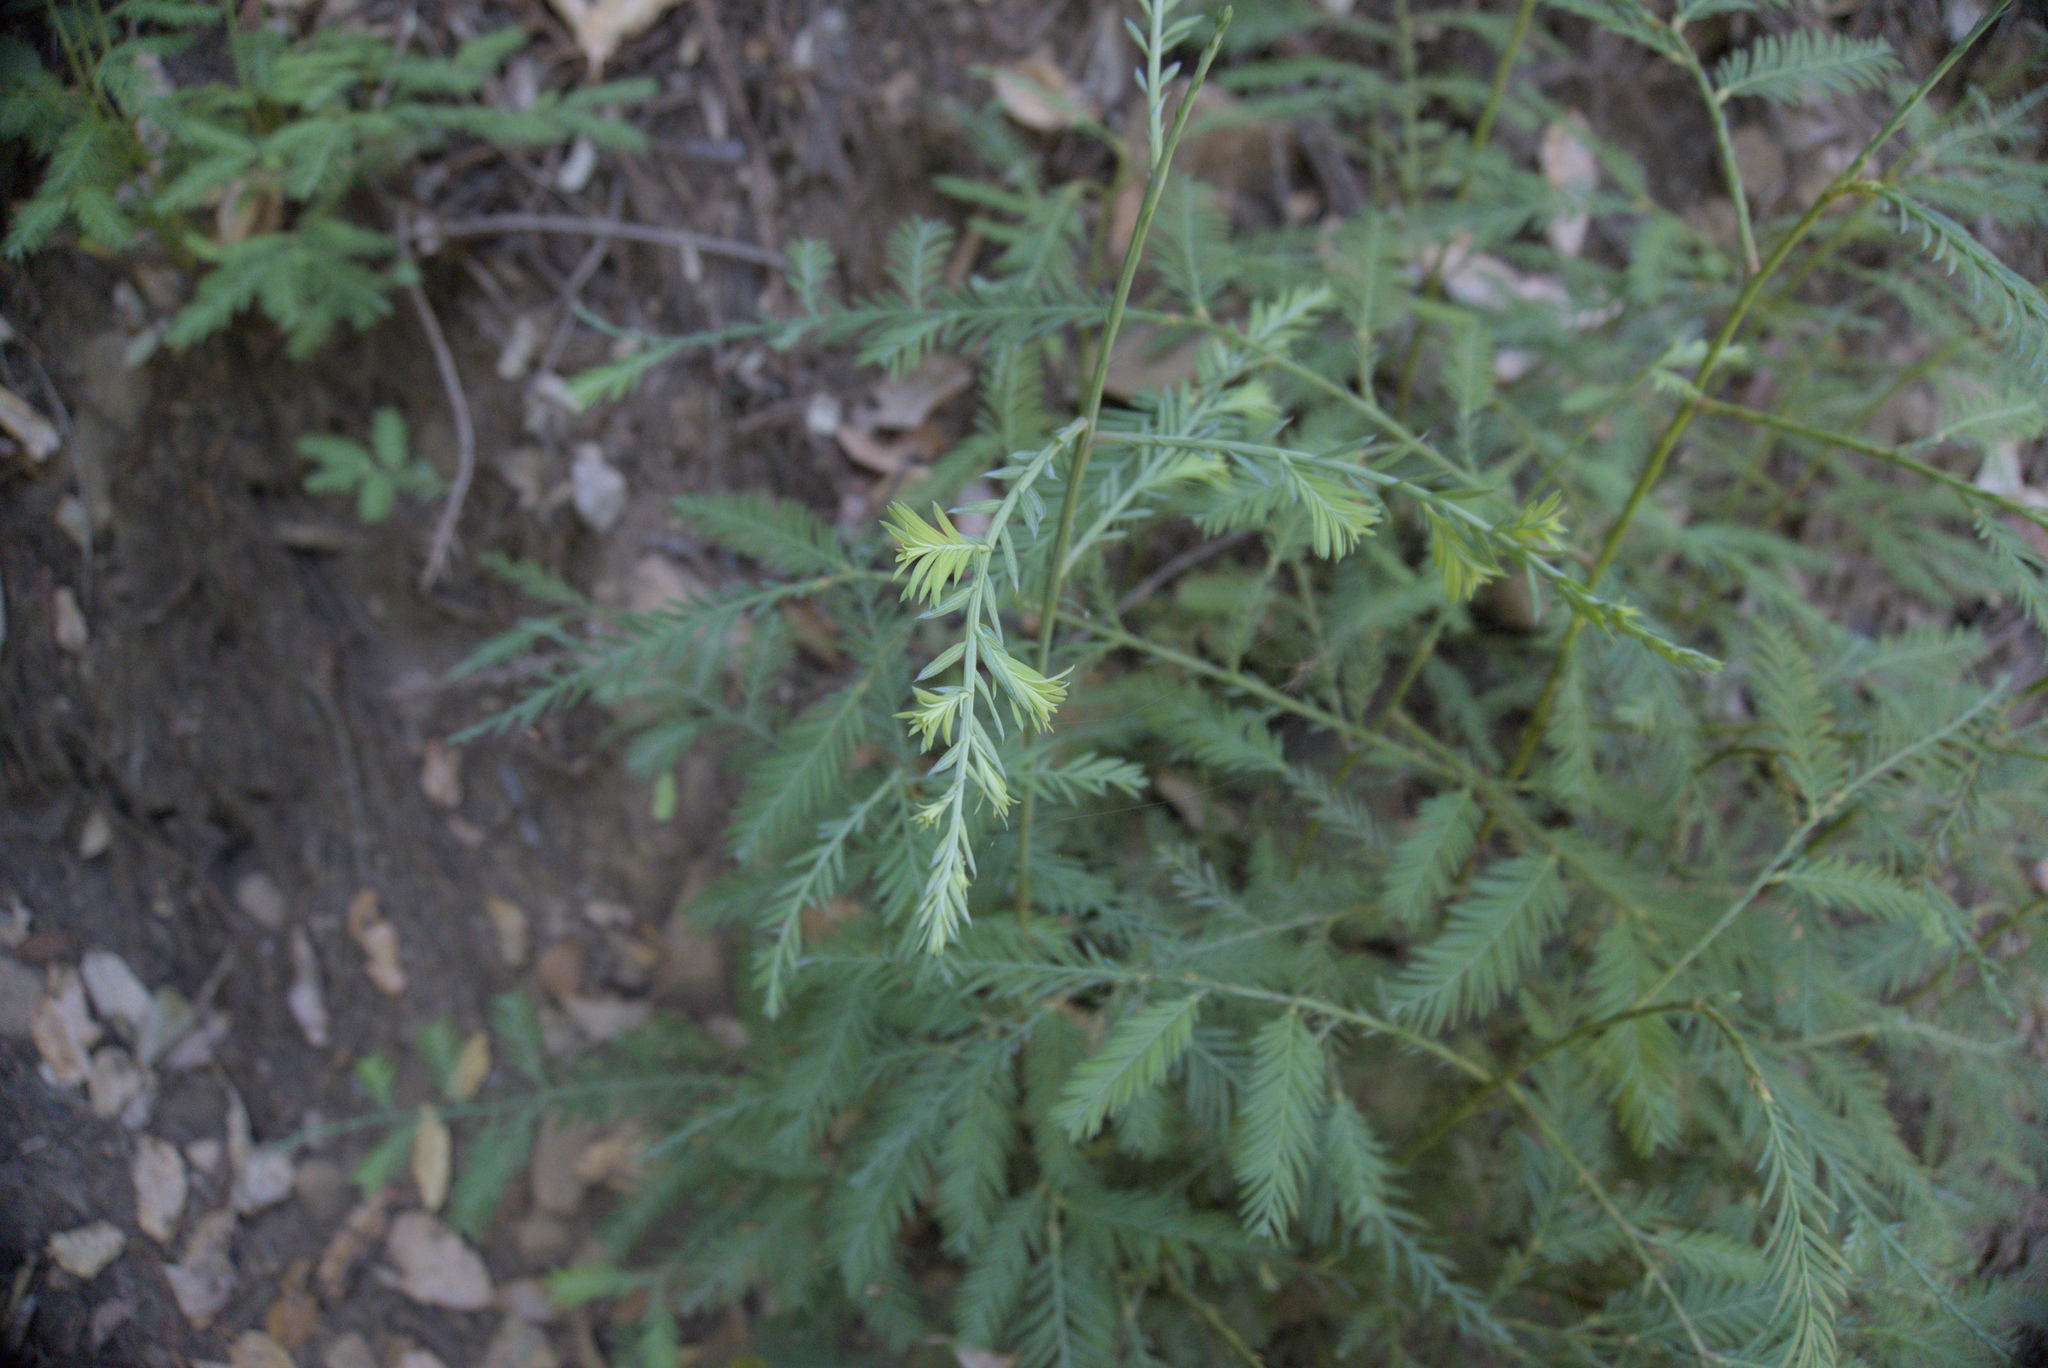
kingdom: Plantae
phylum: Tracheophyta
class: Pinopsida
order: Pinales
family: Cupressaceae
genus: Sequoia
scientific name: Sequoia sempervirens
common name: Coast redwood
